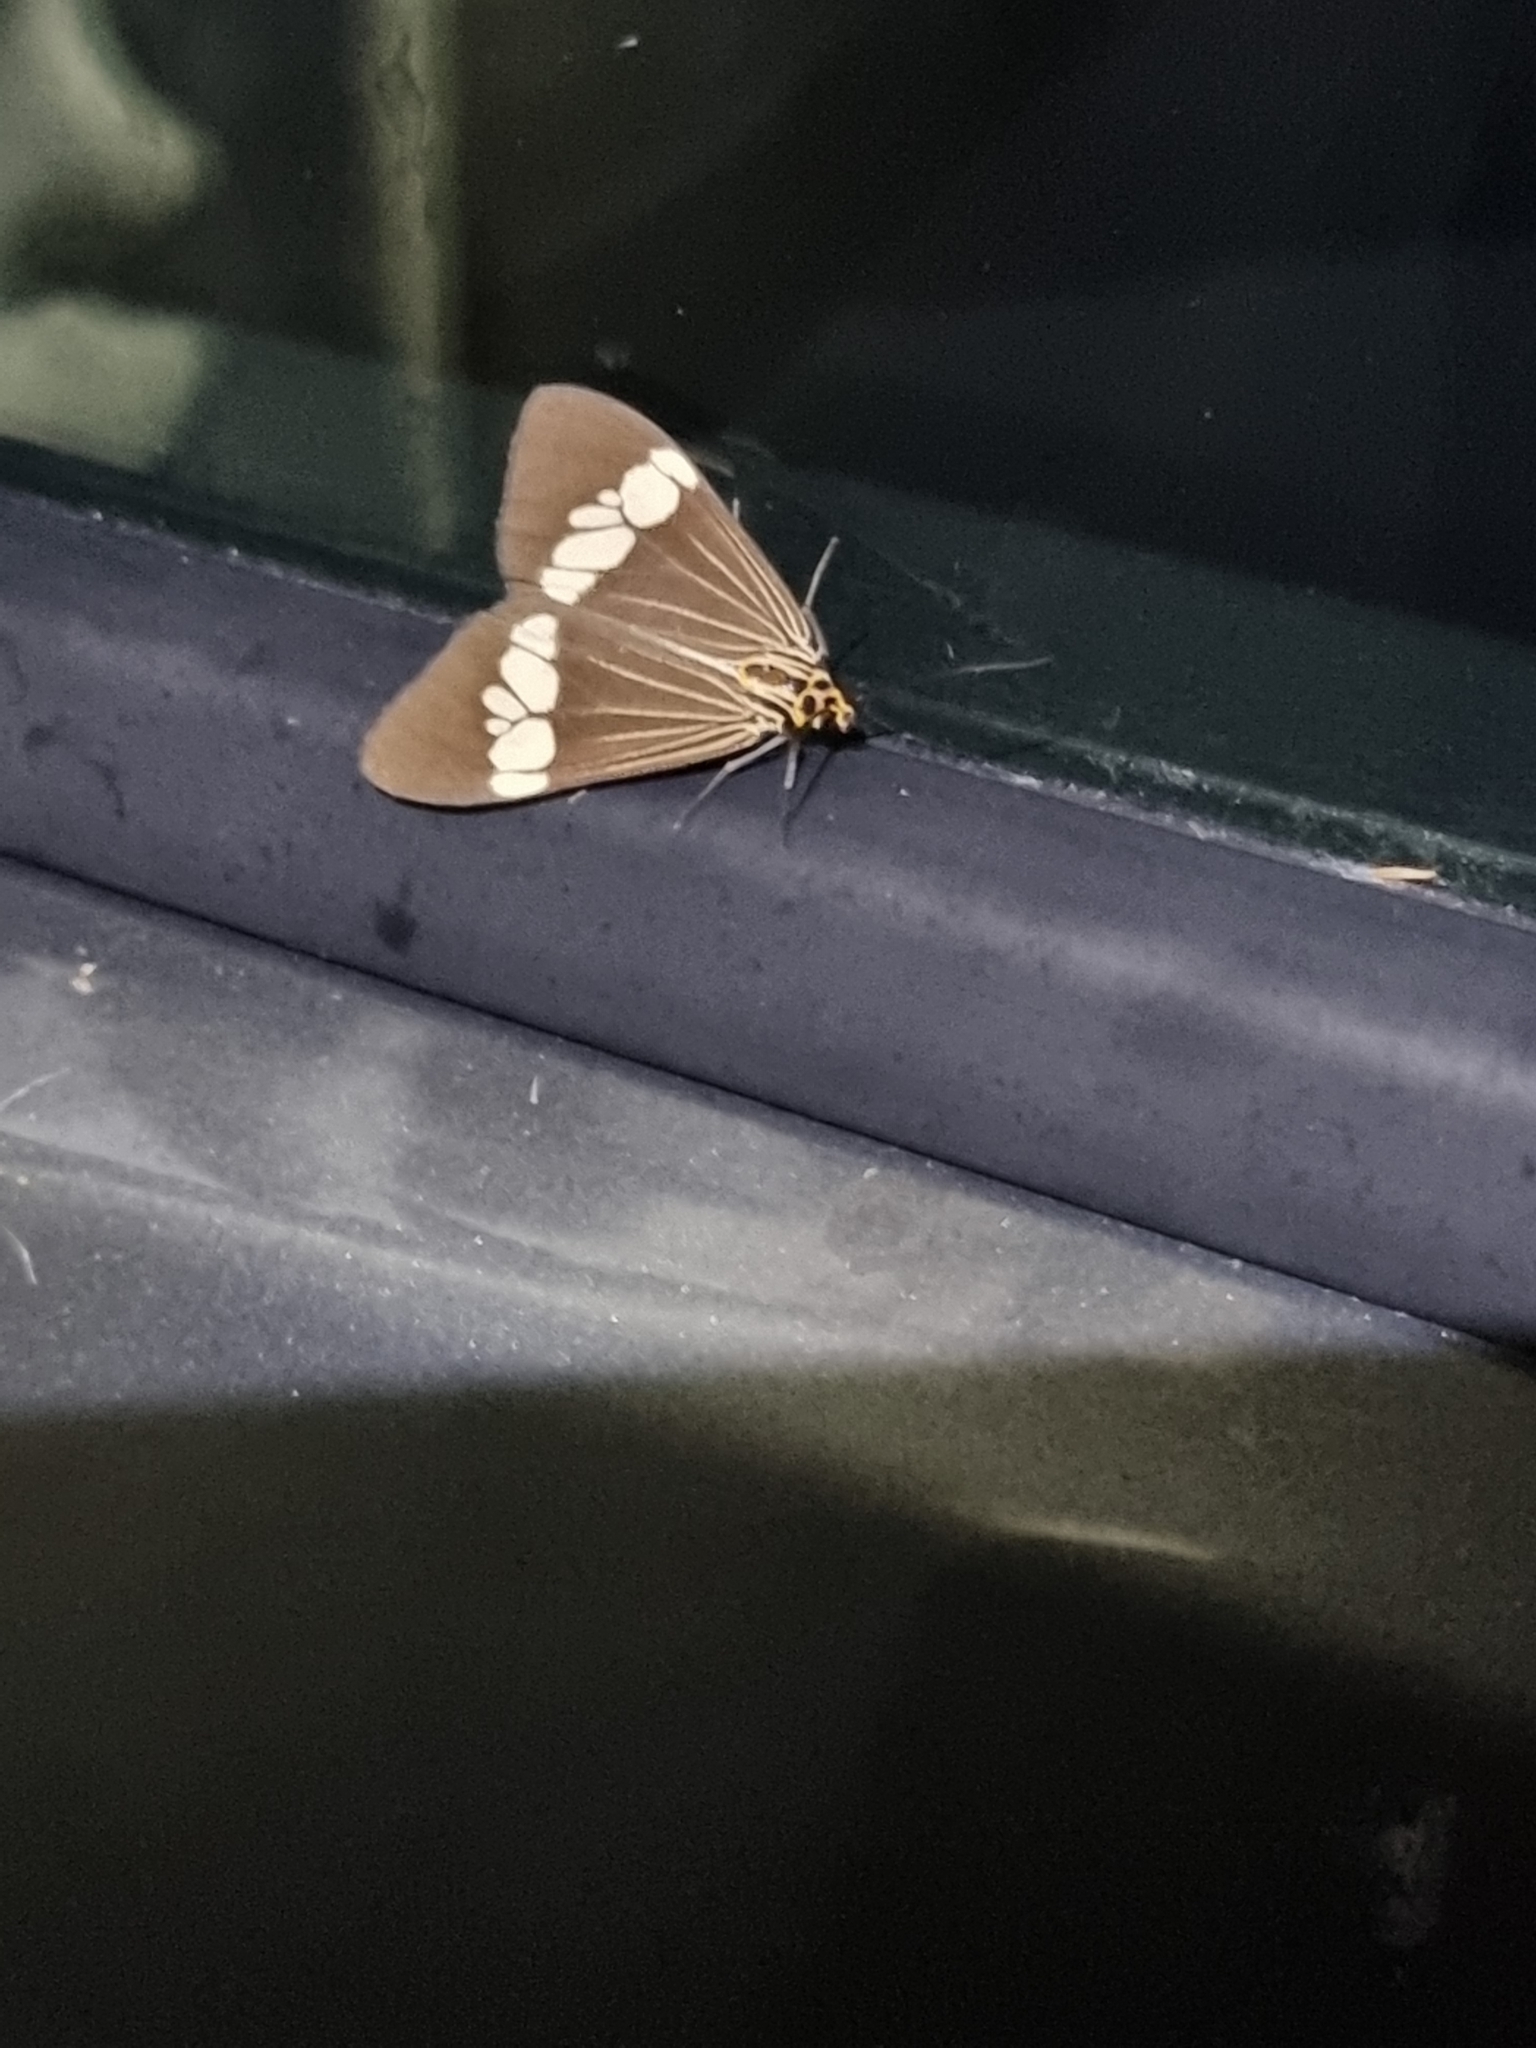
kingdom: Animalia
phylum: Arthropoda
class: Insecta
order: Lepidoptera
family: Erebidae
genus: Nyctemera
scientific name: Nyctemera baulus
